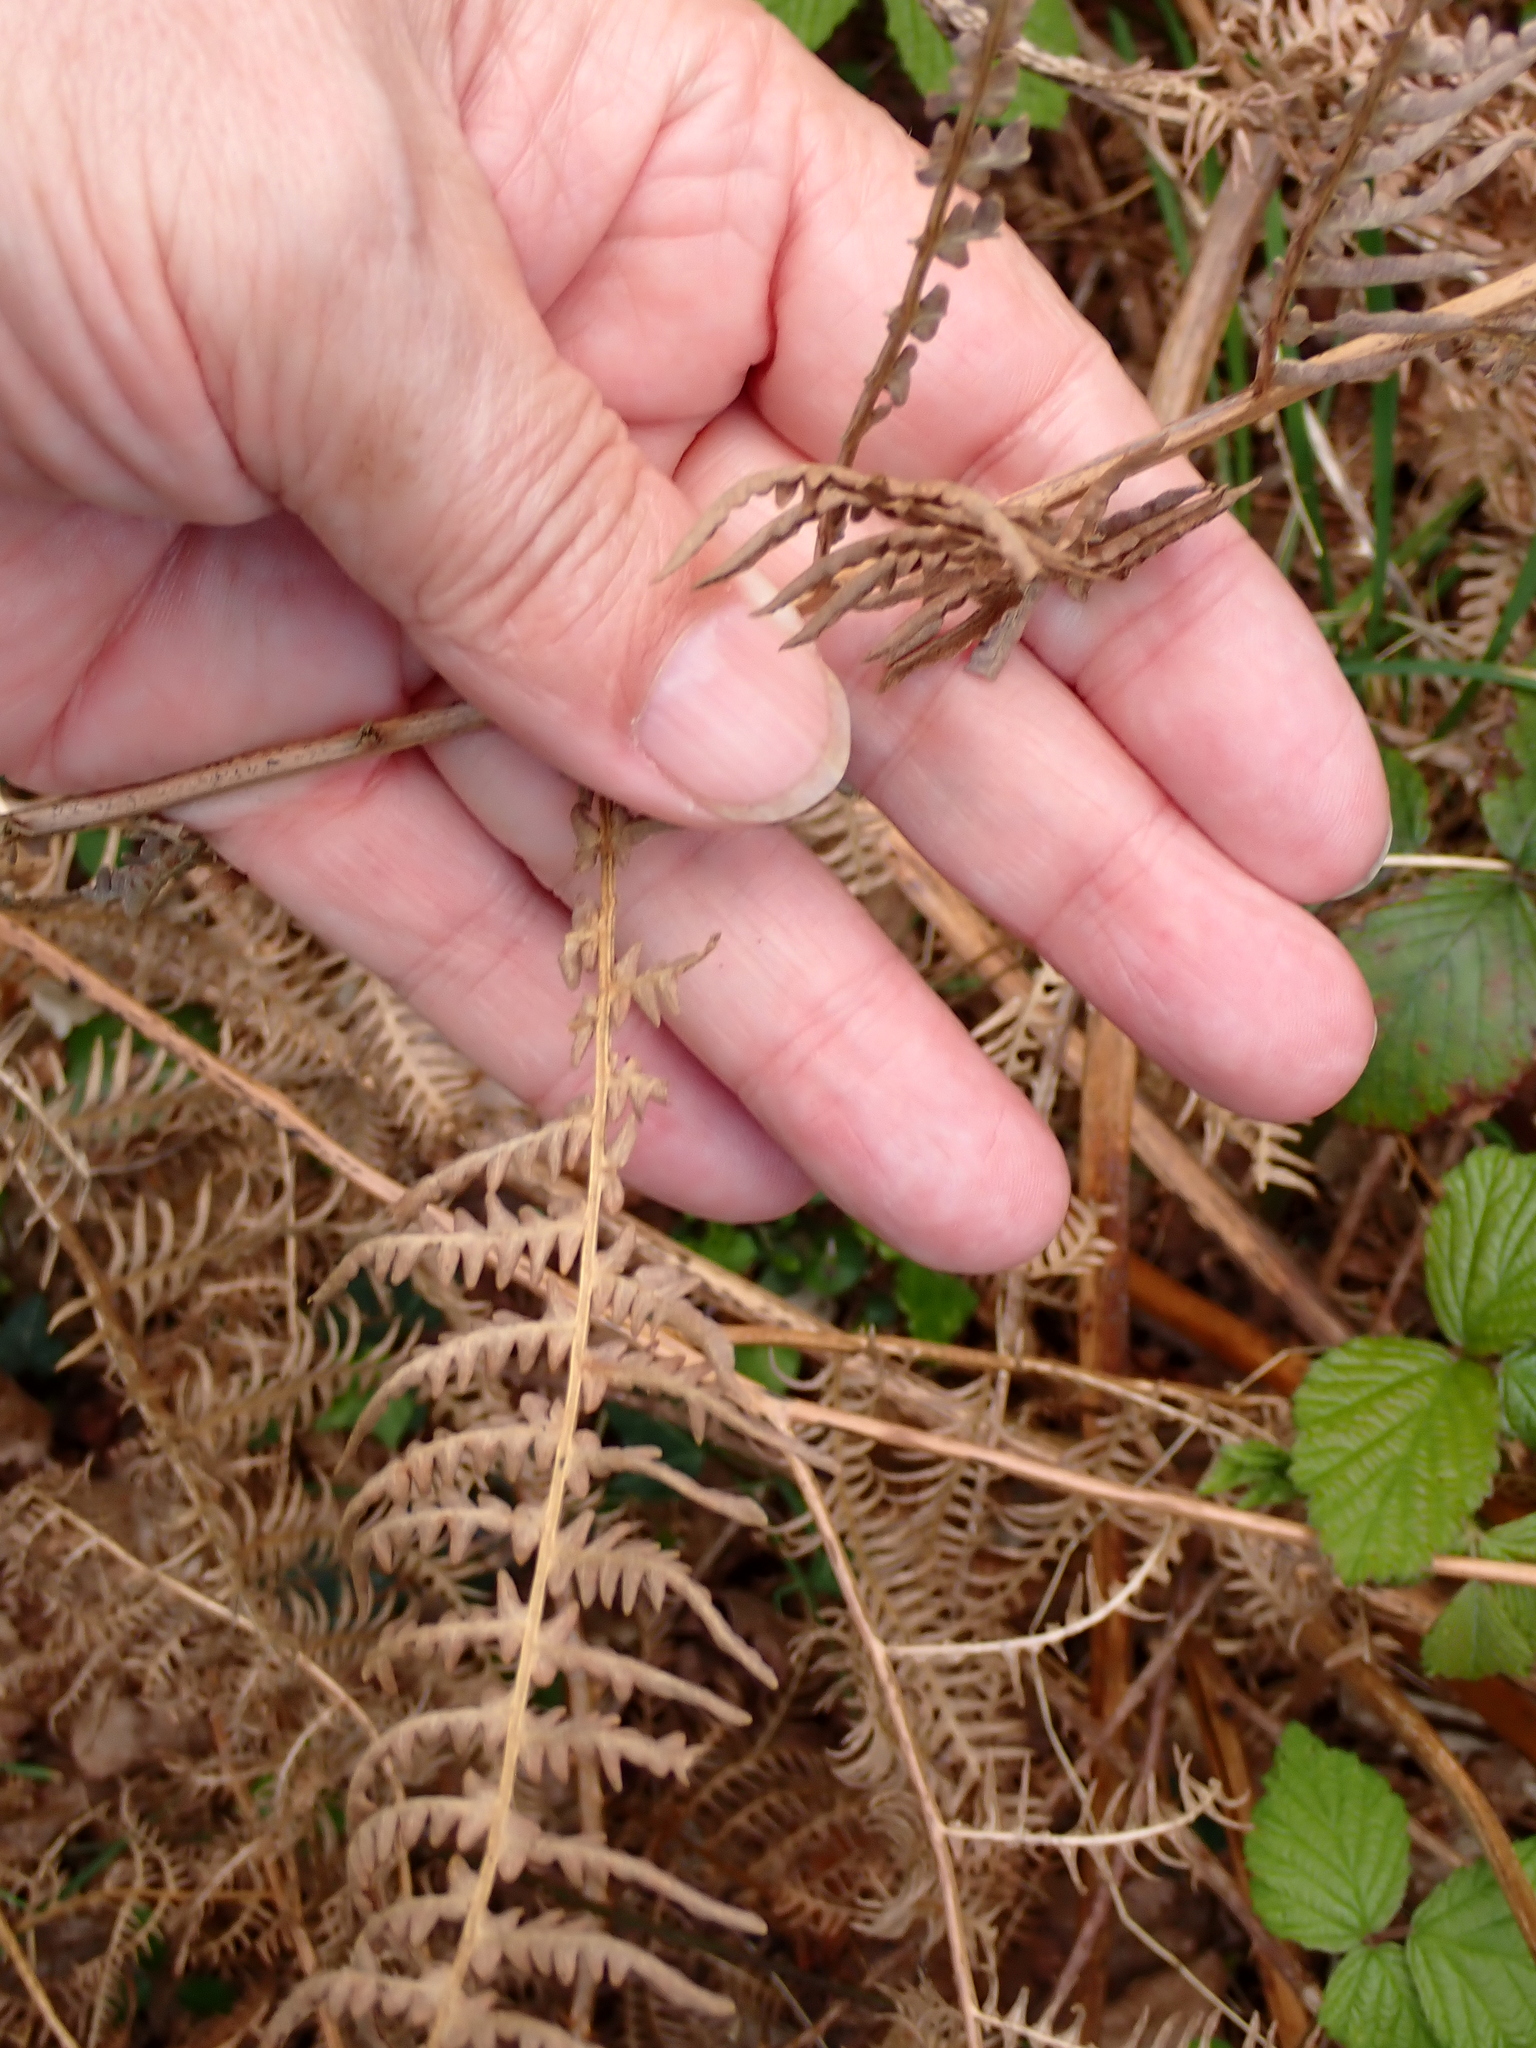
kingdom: Plantae
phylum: Tracheophyta
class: Polypodiopsida
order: Polypodiales
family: Dennstaedtiaceae
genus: Pteridium
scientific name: Pteridium aquilinum
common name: Bracken
